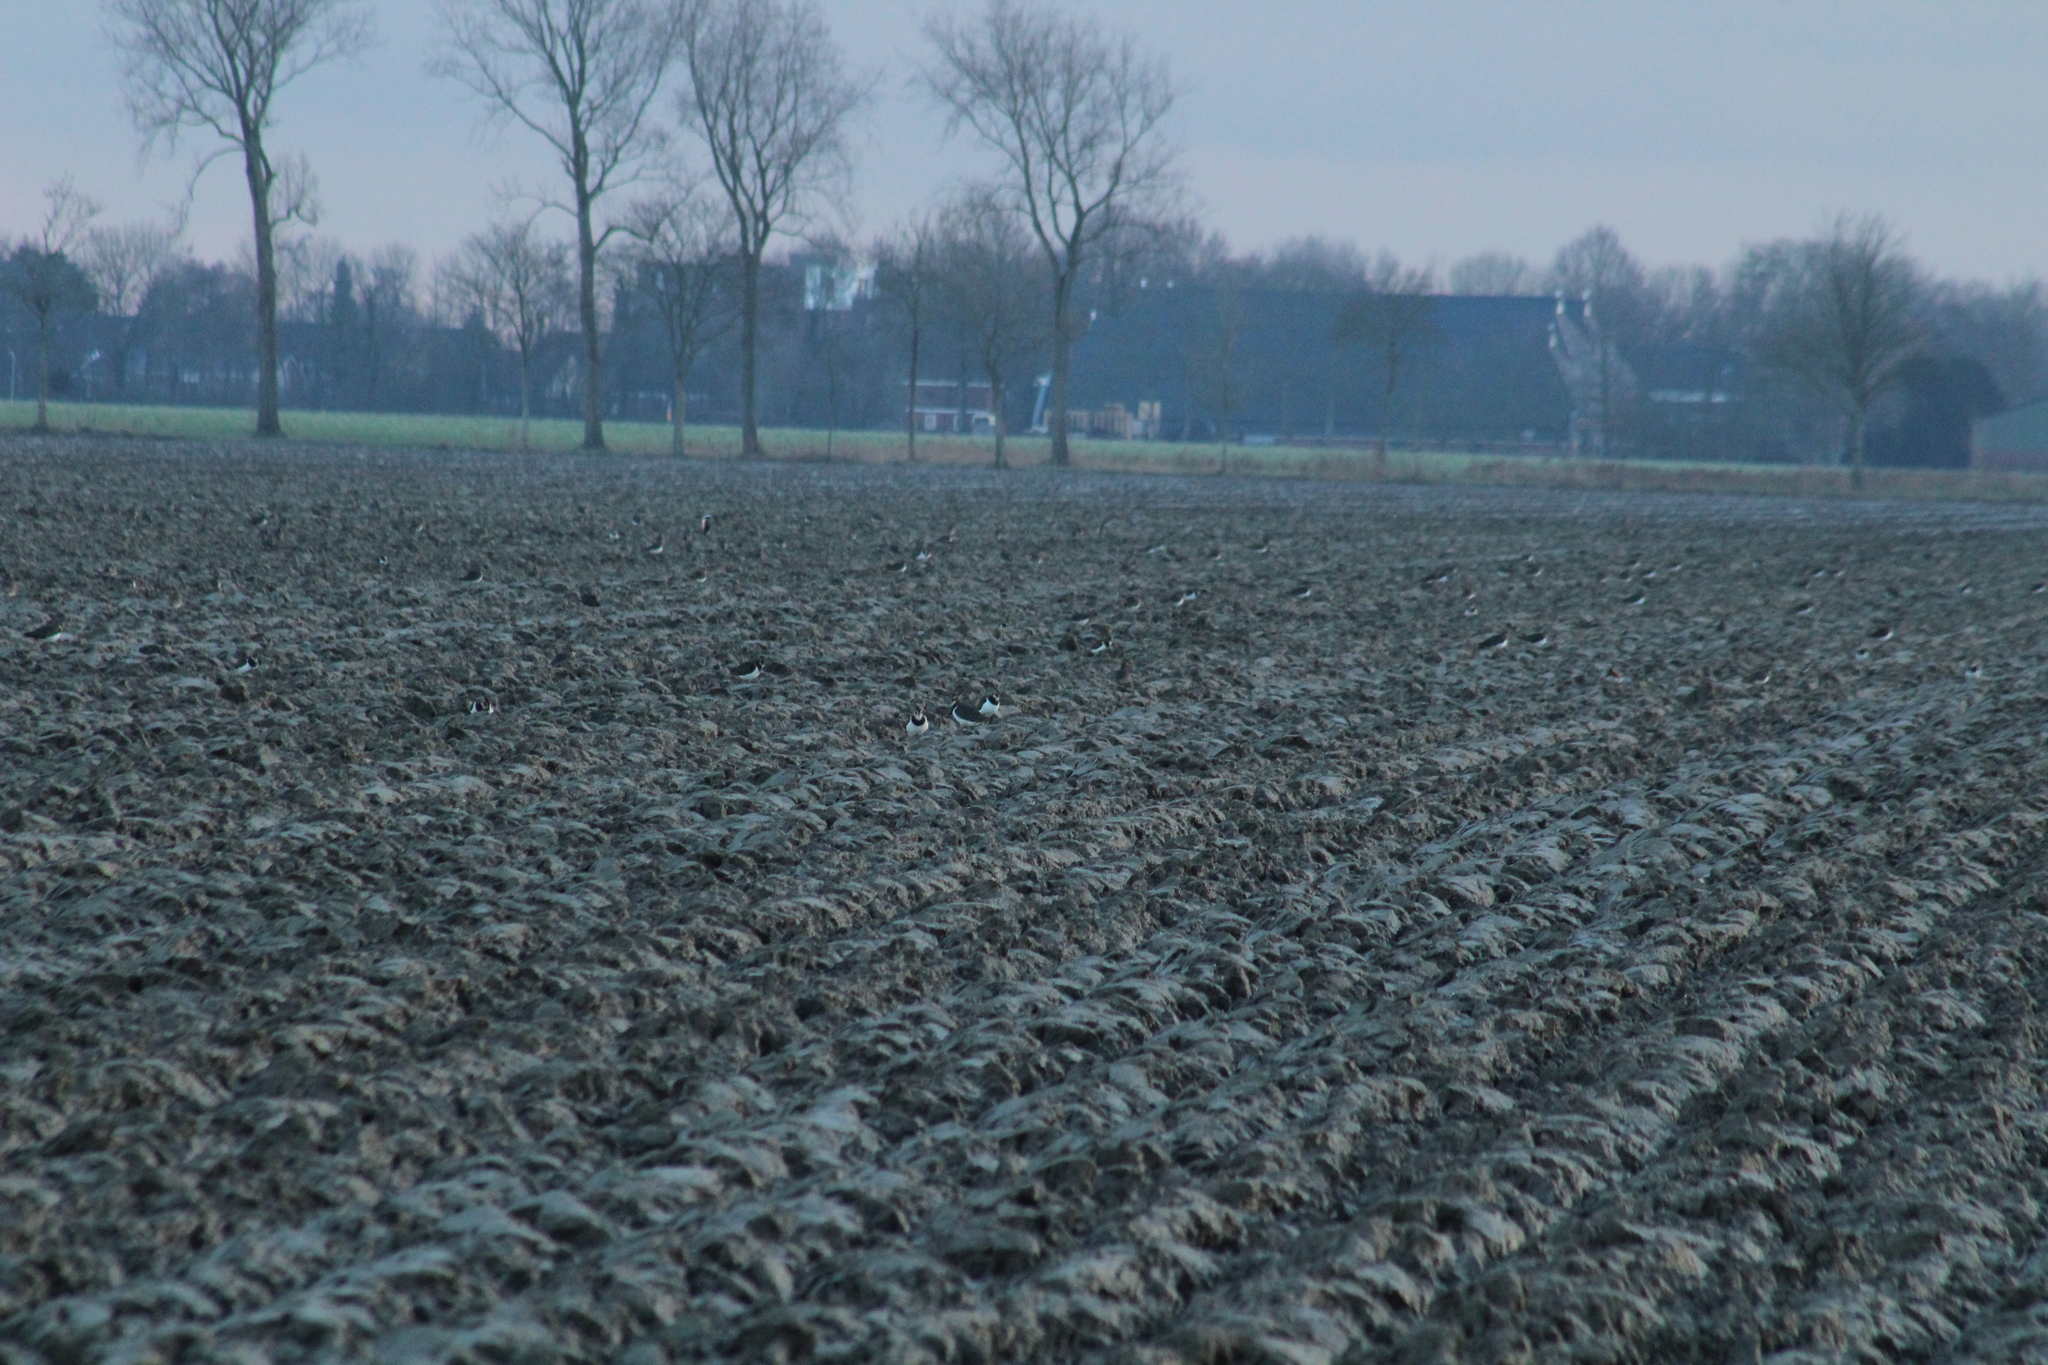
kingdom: Animalia
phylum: Chordata
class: Aves
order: Charadriiformes
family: Charadriidae
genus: Vanellus
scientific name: Vanellus vanellus
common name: Northern lapwing
